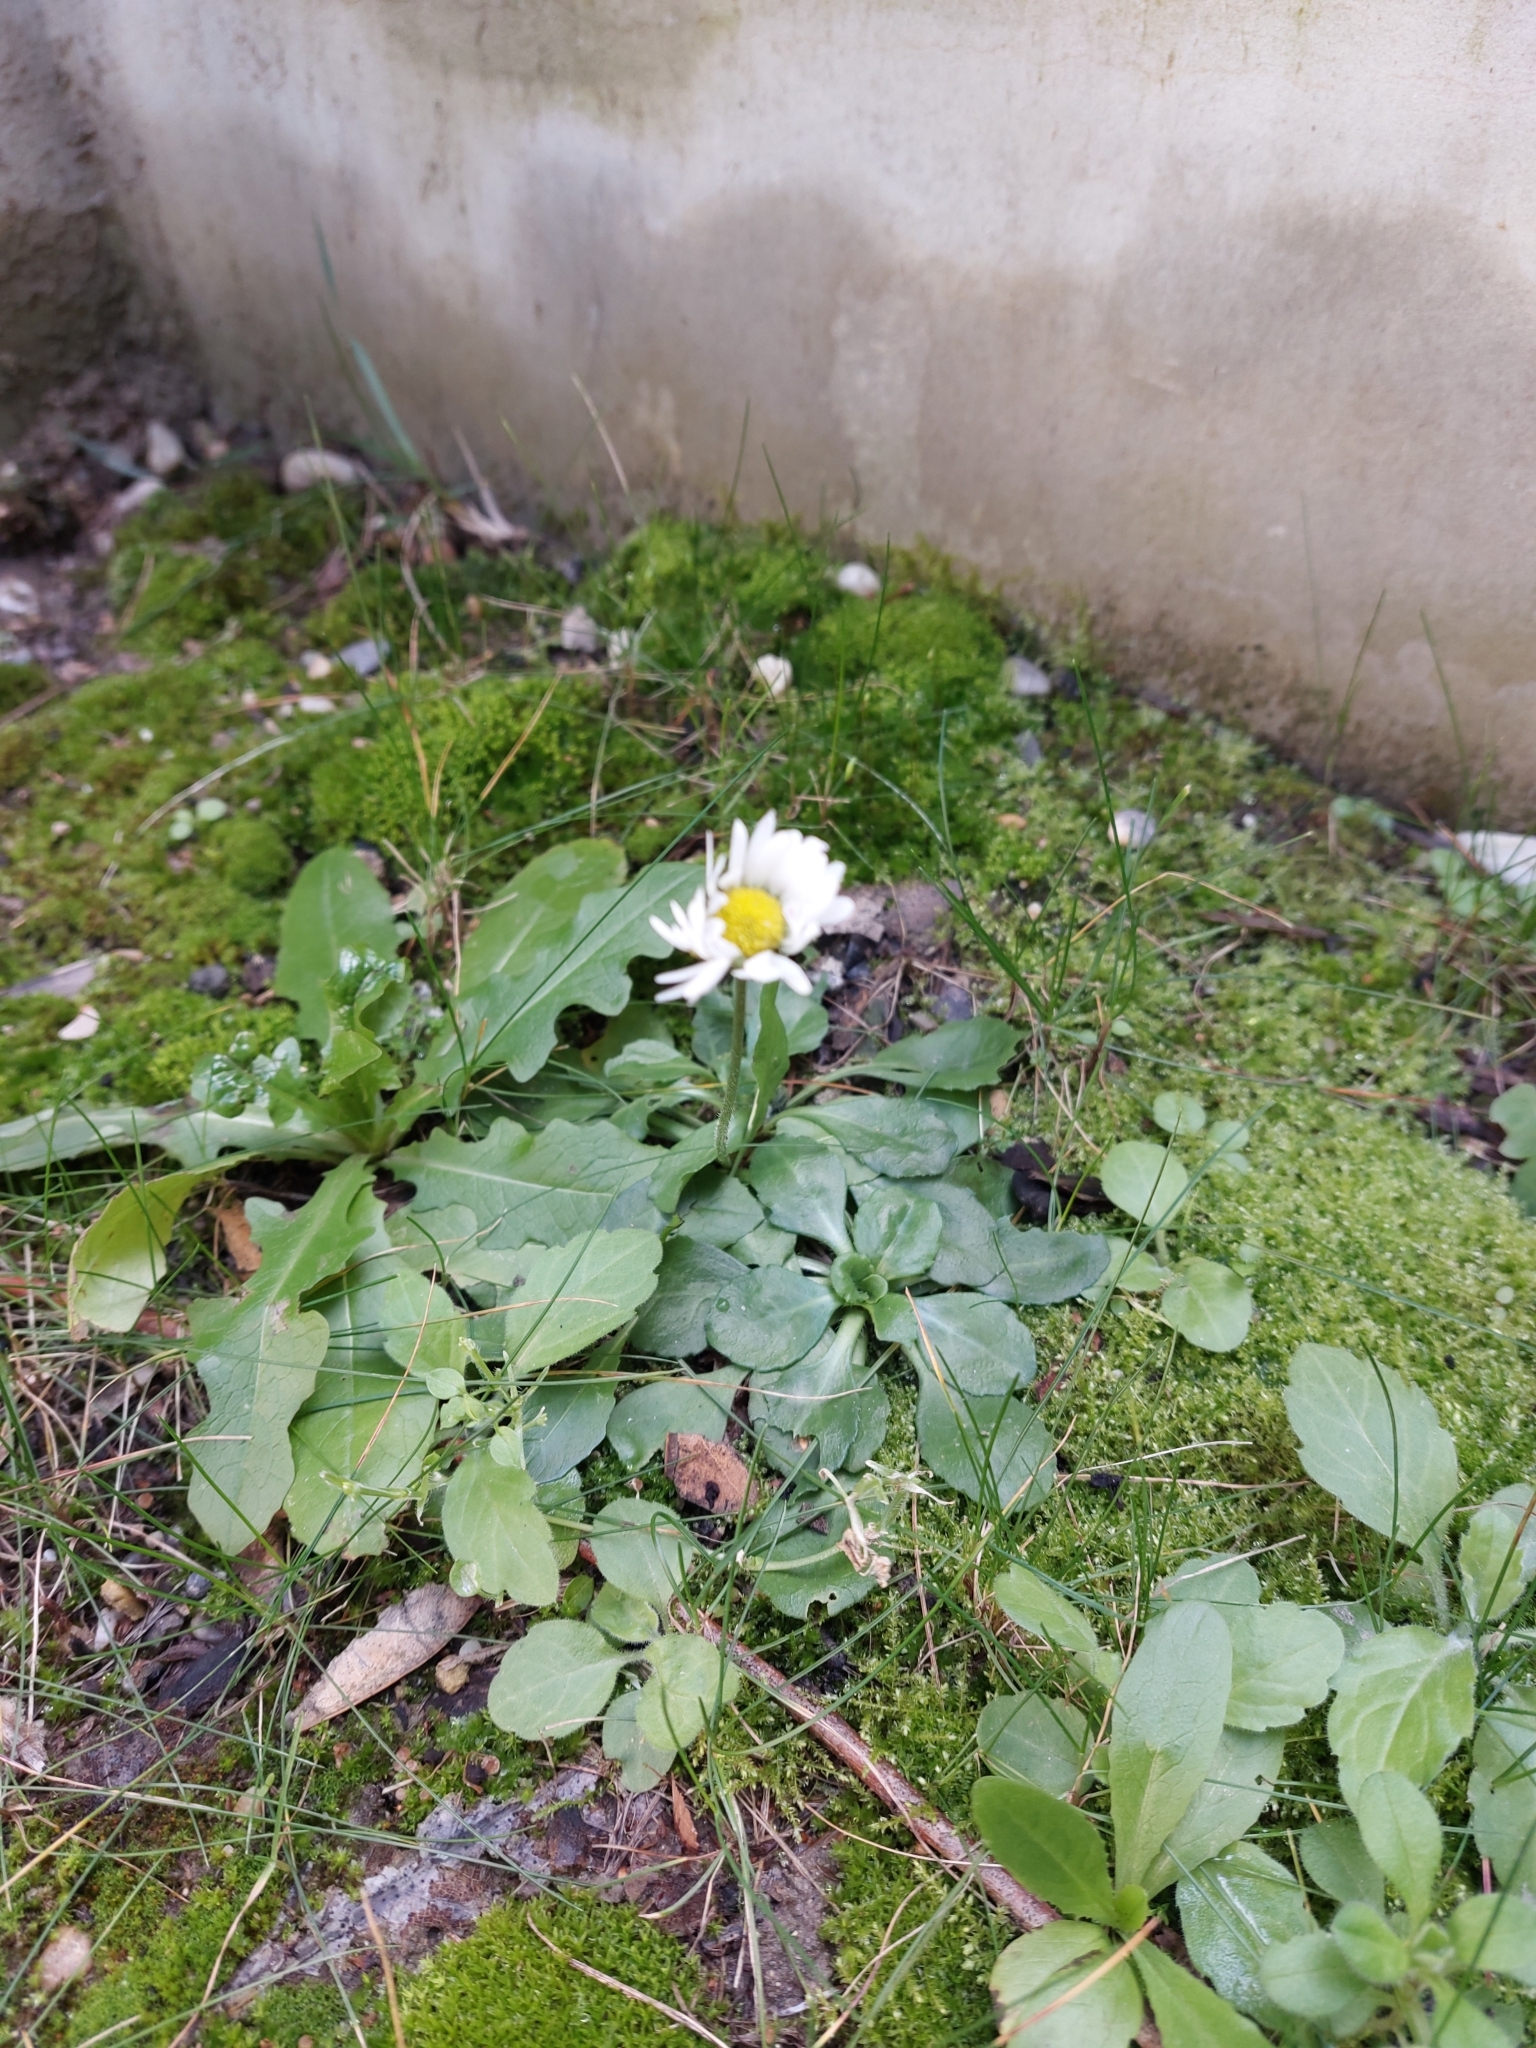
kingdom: Plantae
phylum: Tracheophyta
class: Magnoliopsida
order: Asterales
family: Asteraceae
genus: Bellis
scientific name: Bellis perennis
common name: Lawndaisy
